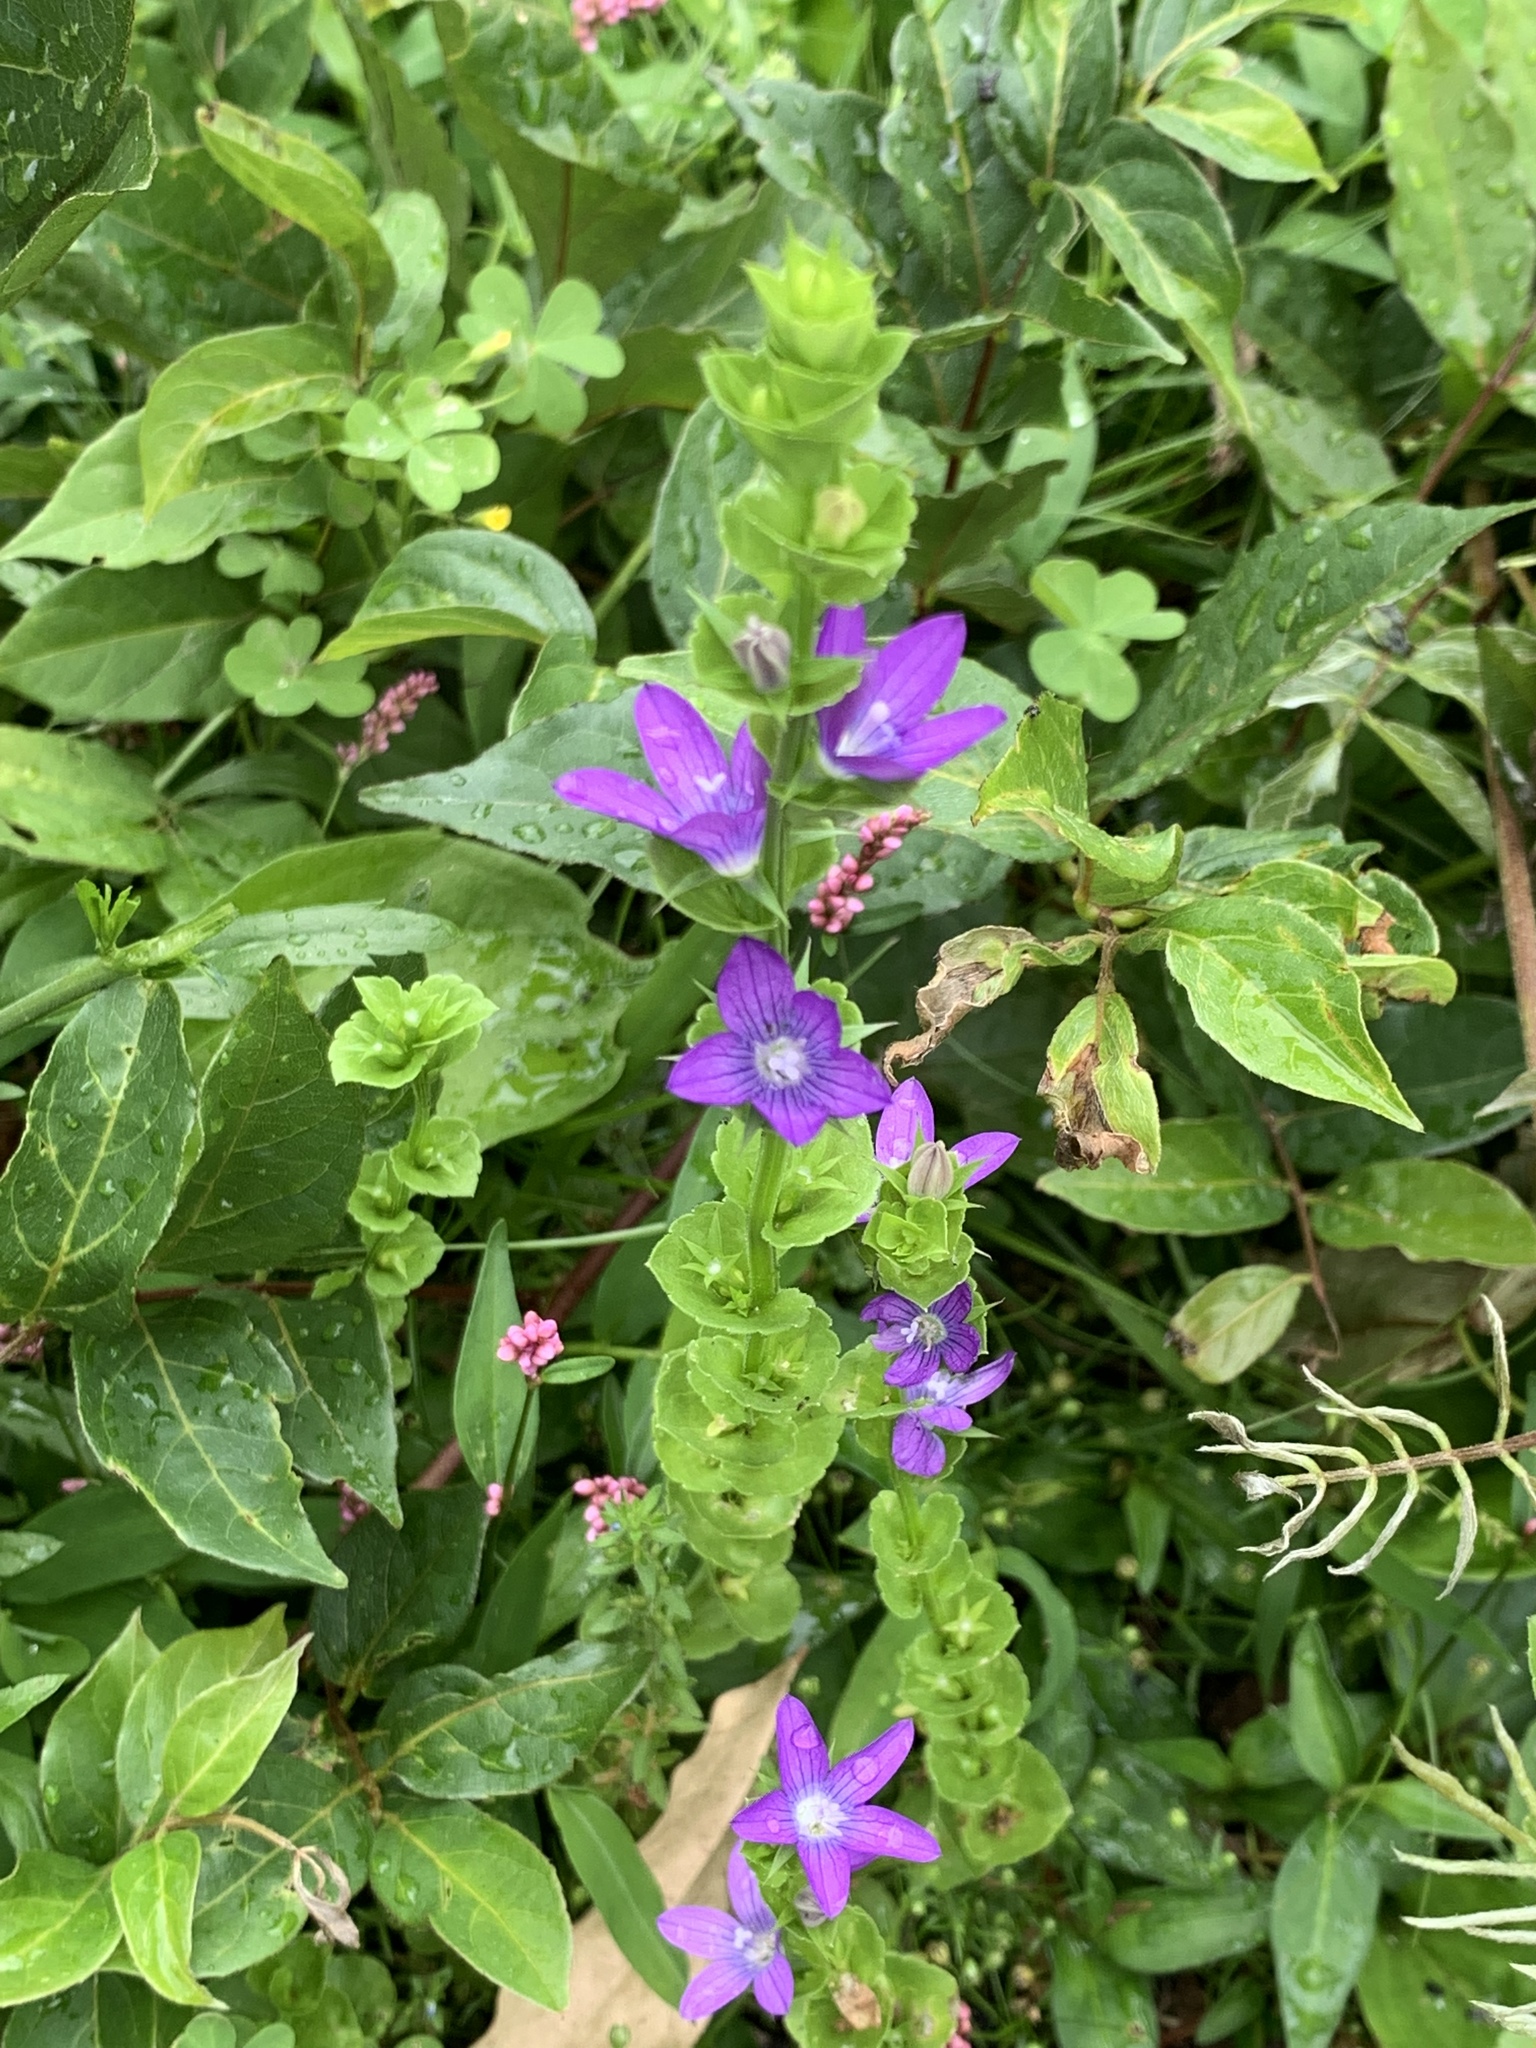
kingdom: Plantae
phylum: Tracheophyta
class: Magnoliopsida
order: Asterales
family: Campanulaceae
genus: Triodanis
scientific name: Triodanis perfoliata
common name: Clasping venus' looking-glass
